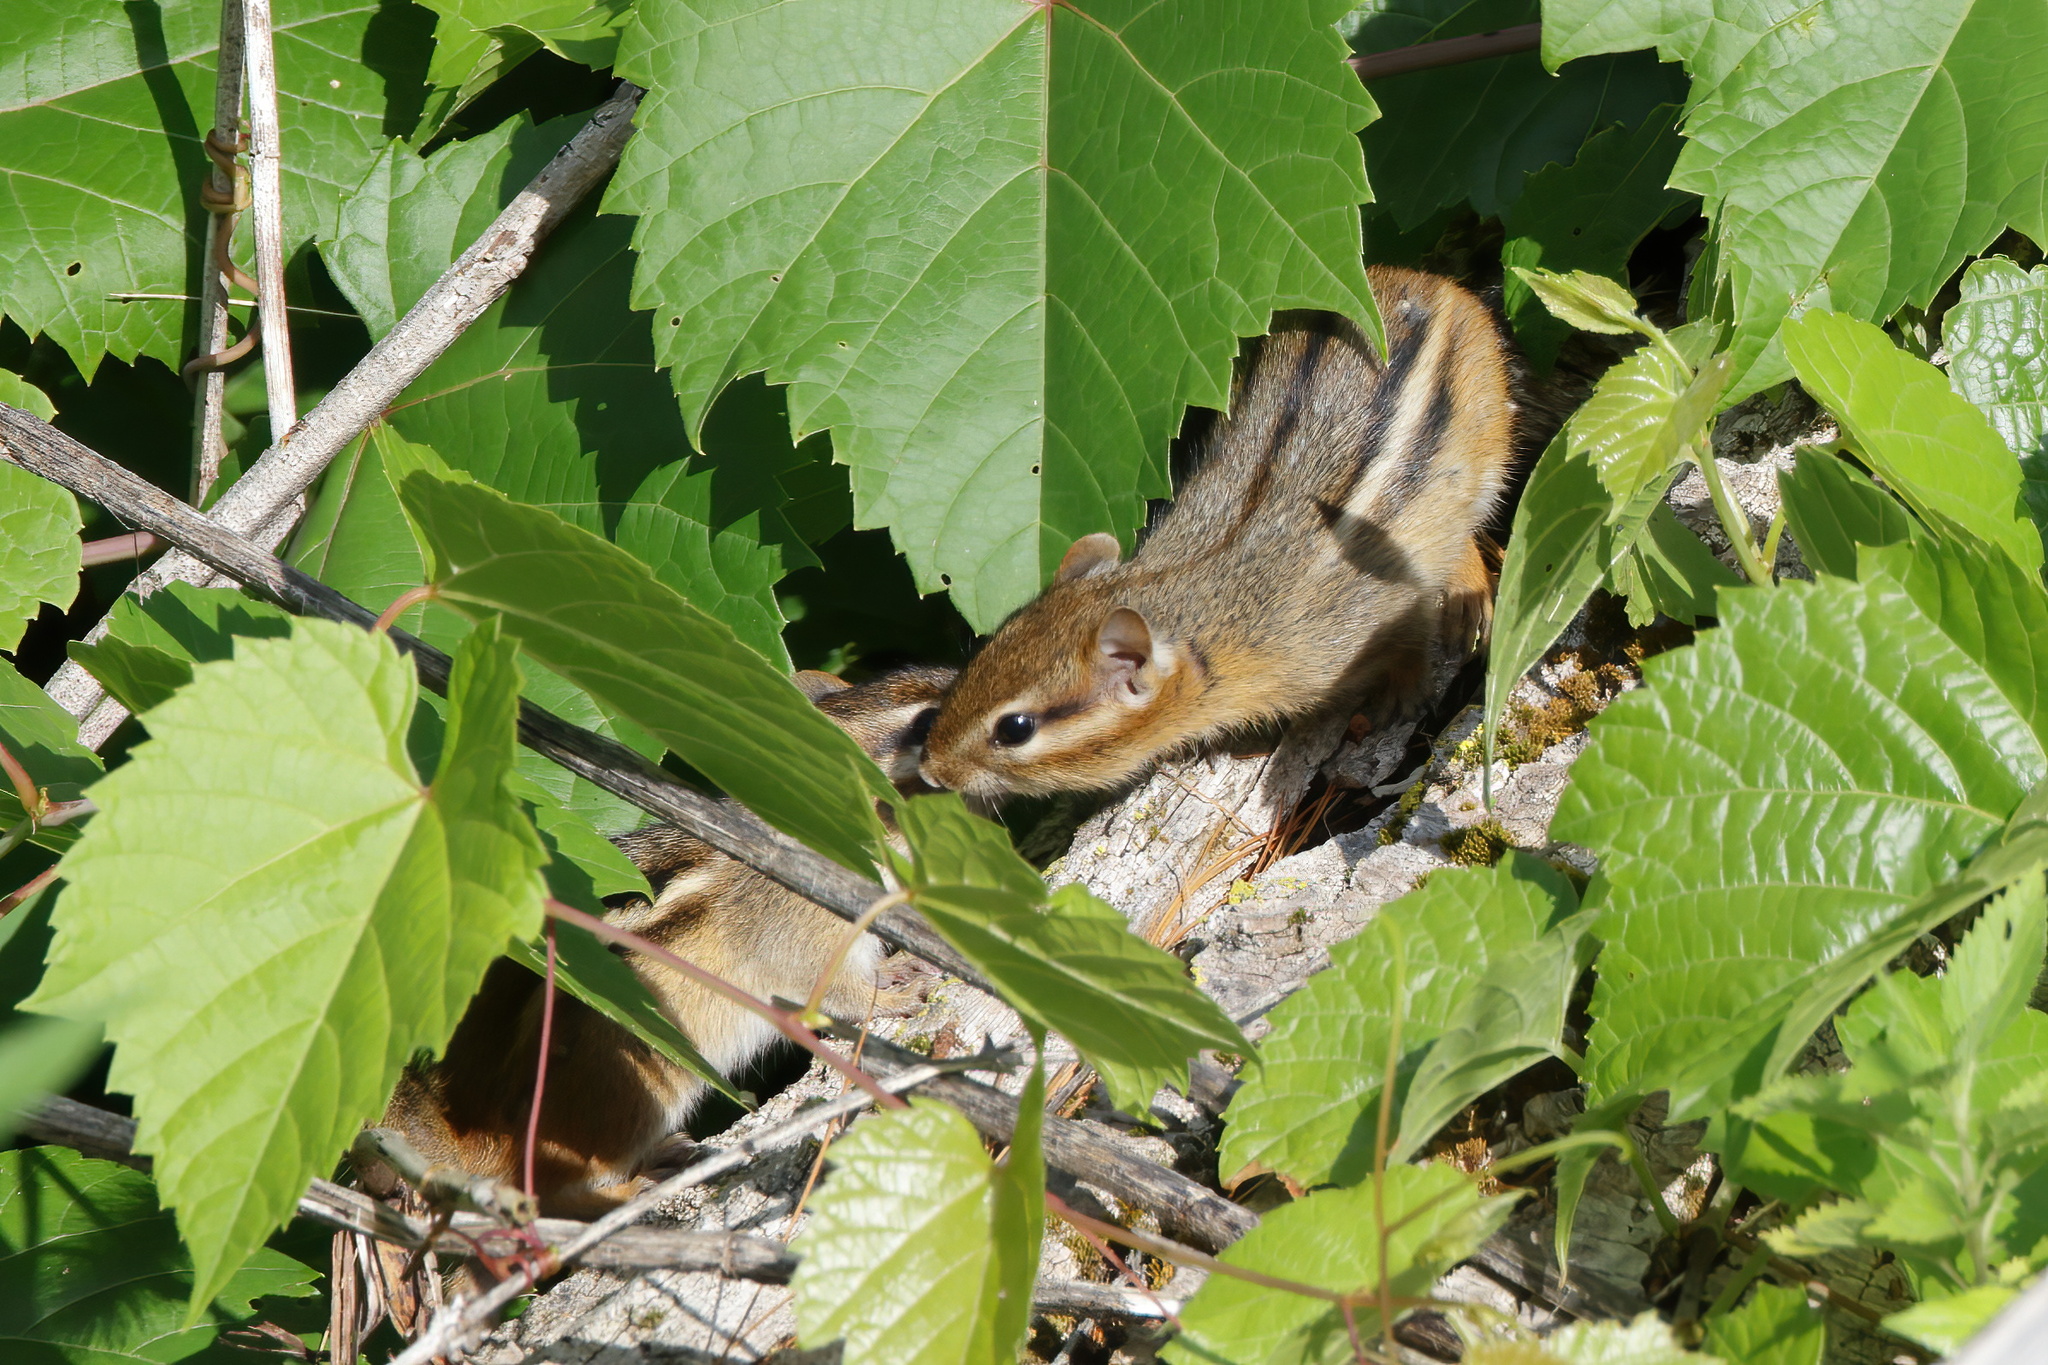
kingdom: Animalia
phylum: Chordata
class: Mammalia
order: Rodentia
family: Sciuridae
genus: Tamias
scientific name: Tamias striatus
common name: Eastern chipmunk
